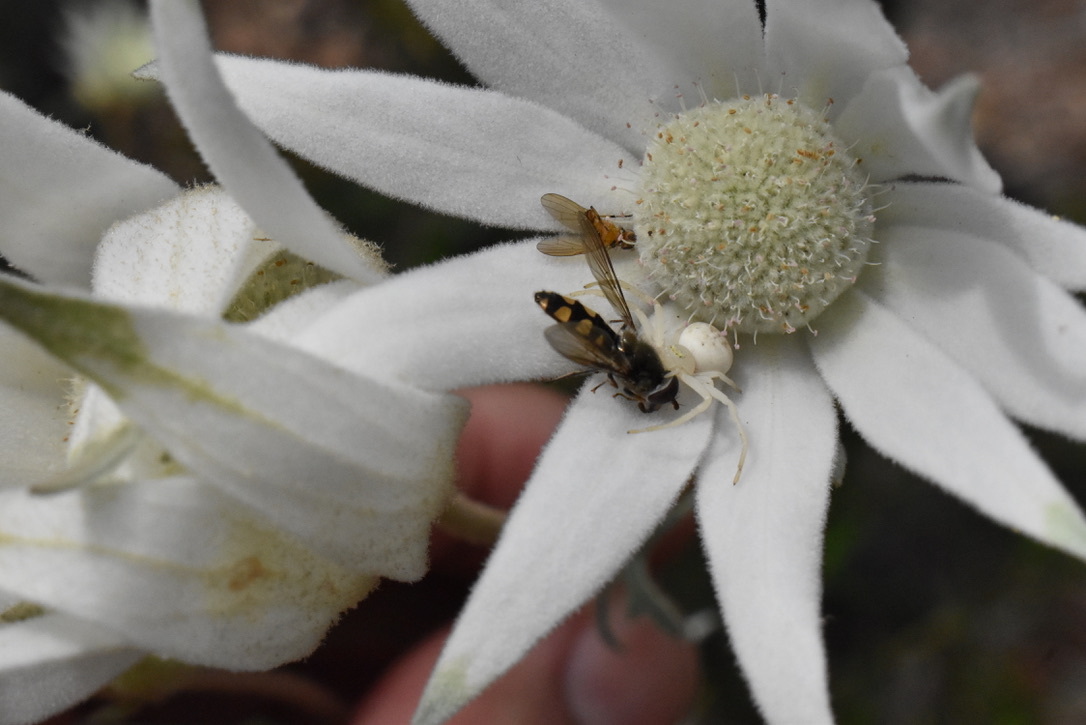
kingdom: Animalia
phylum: Arthropoda
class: Arachnida
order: Araneae
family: Thomisidae
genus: Zygometis
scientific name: Zygometis xanthogaster
